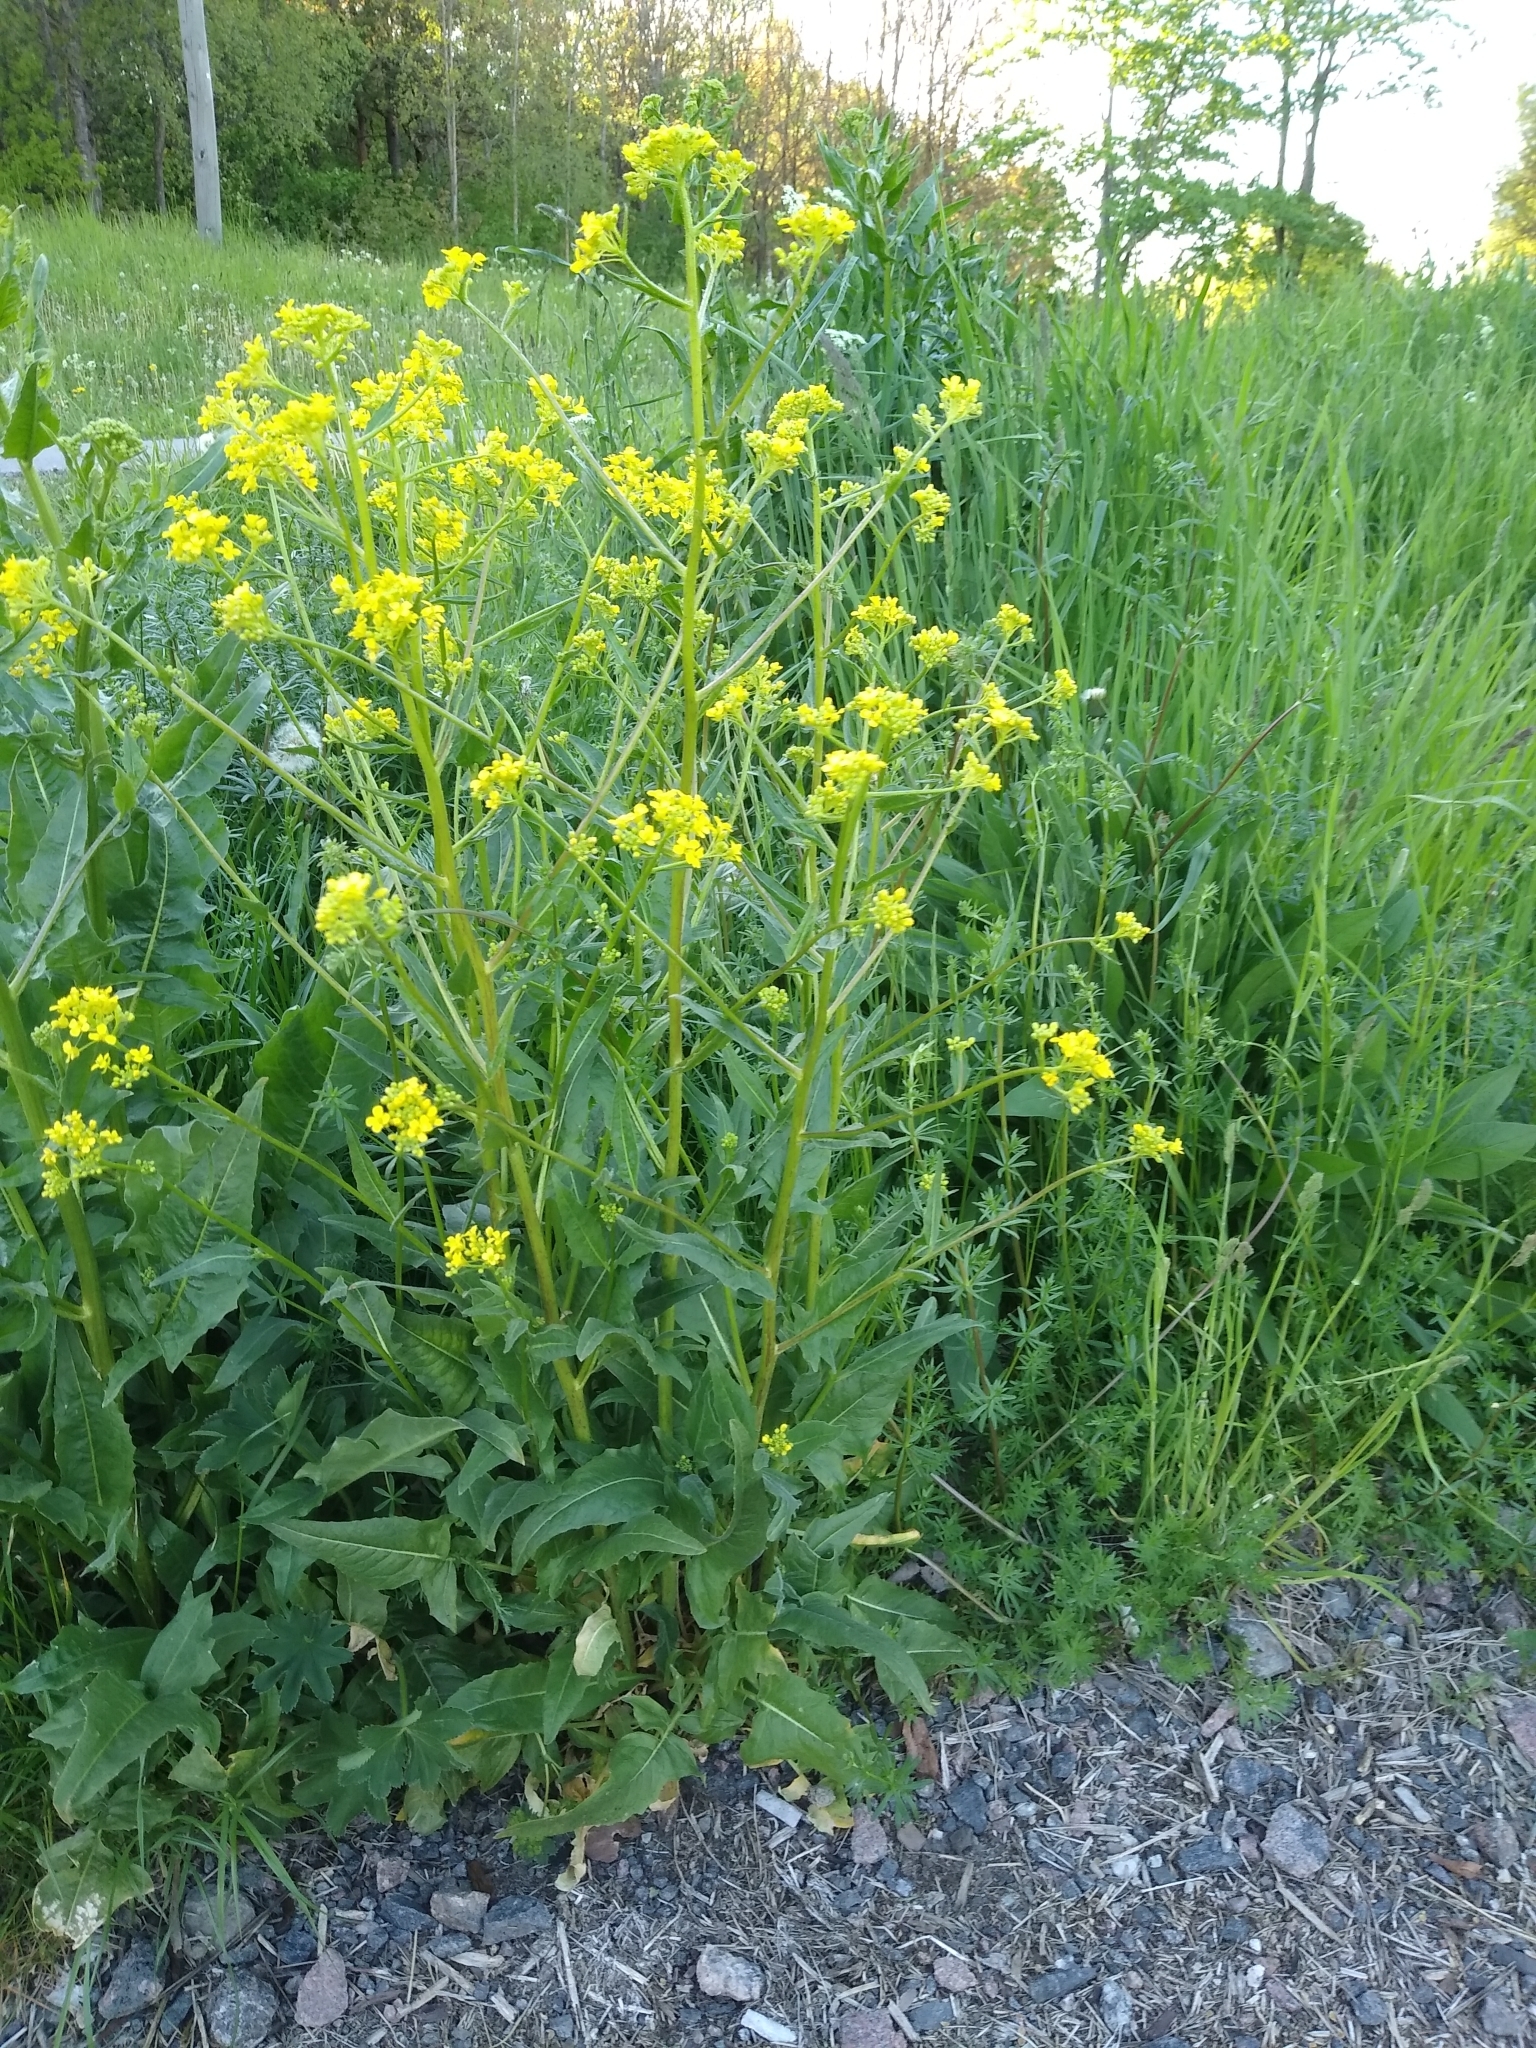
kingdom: Plantae
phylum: Tracheophyta
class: Magnoliopsida
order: Brassicales
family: Brassicaceae
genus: Bunias
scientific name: Bunias orientalis
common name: Warty-cabbage
